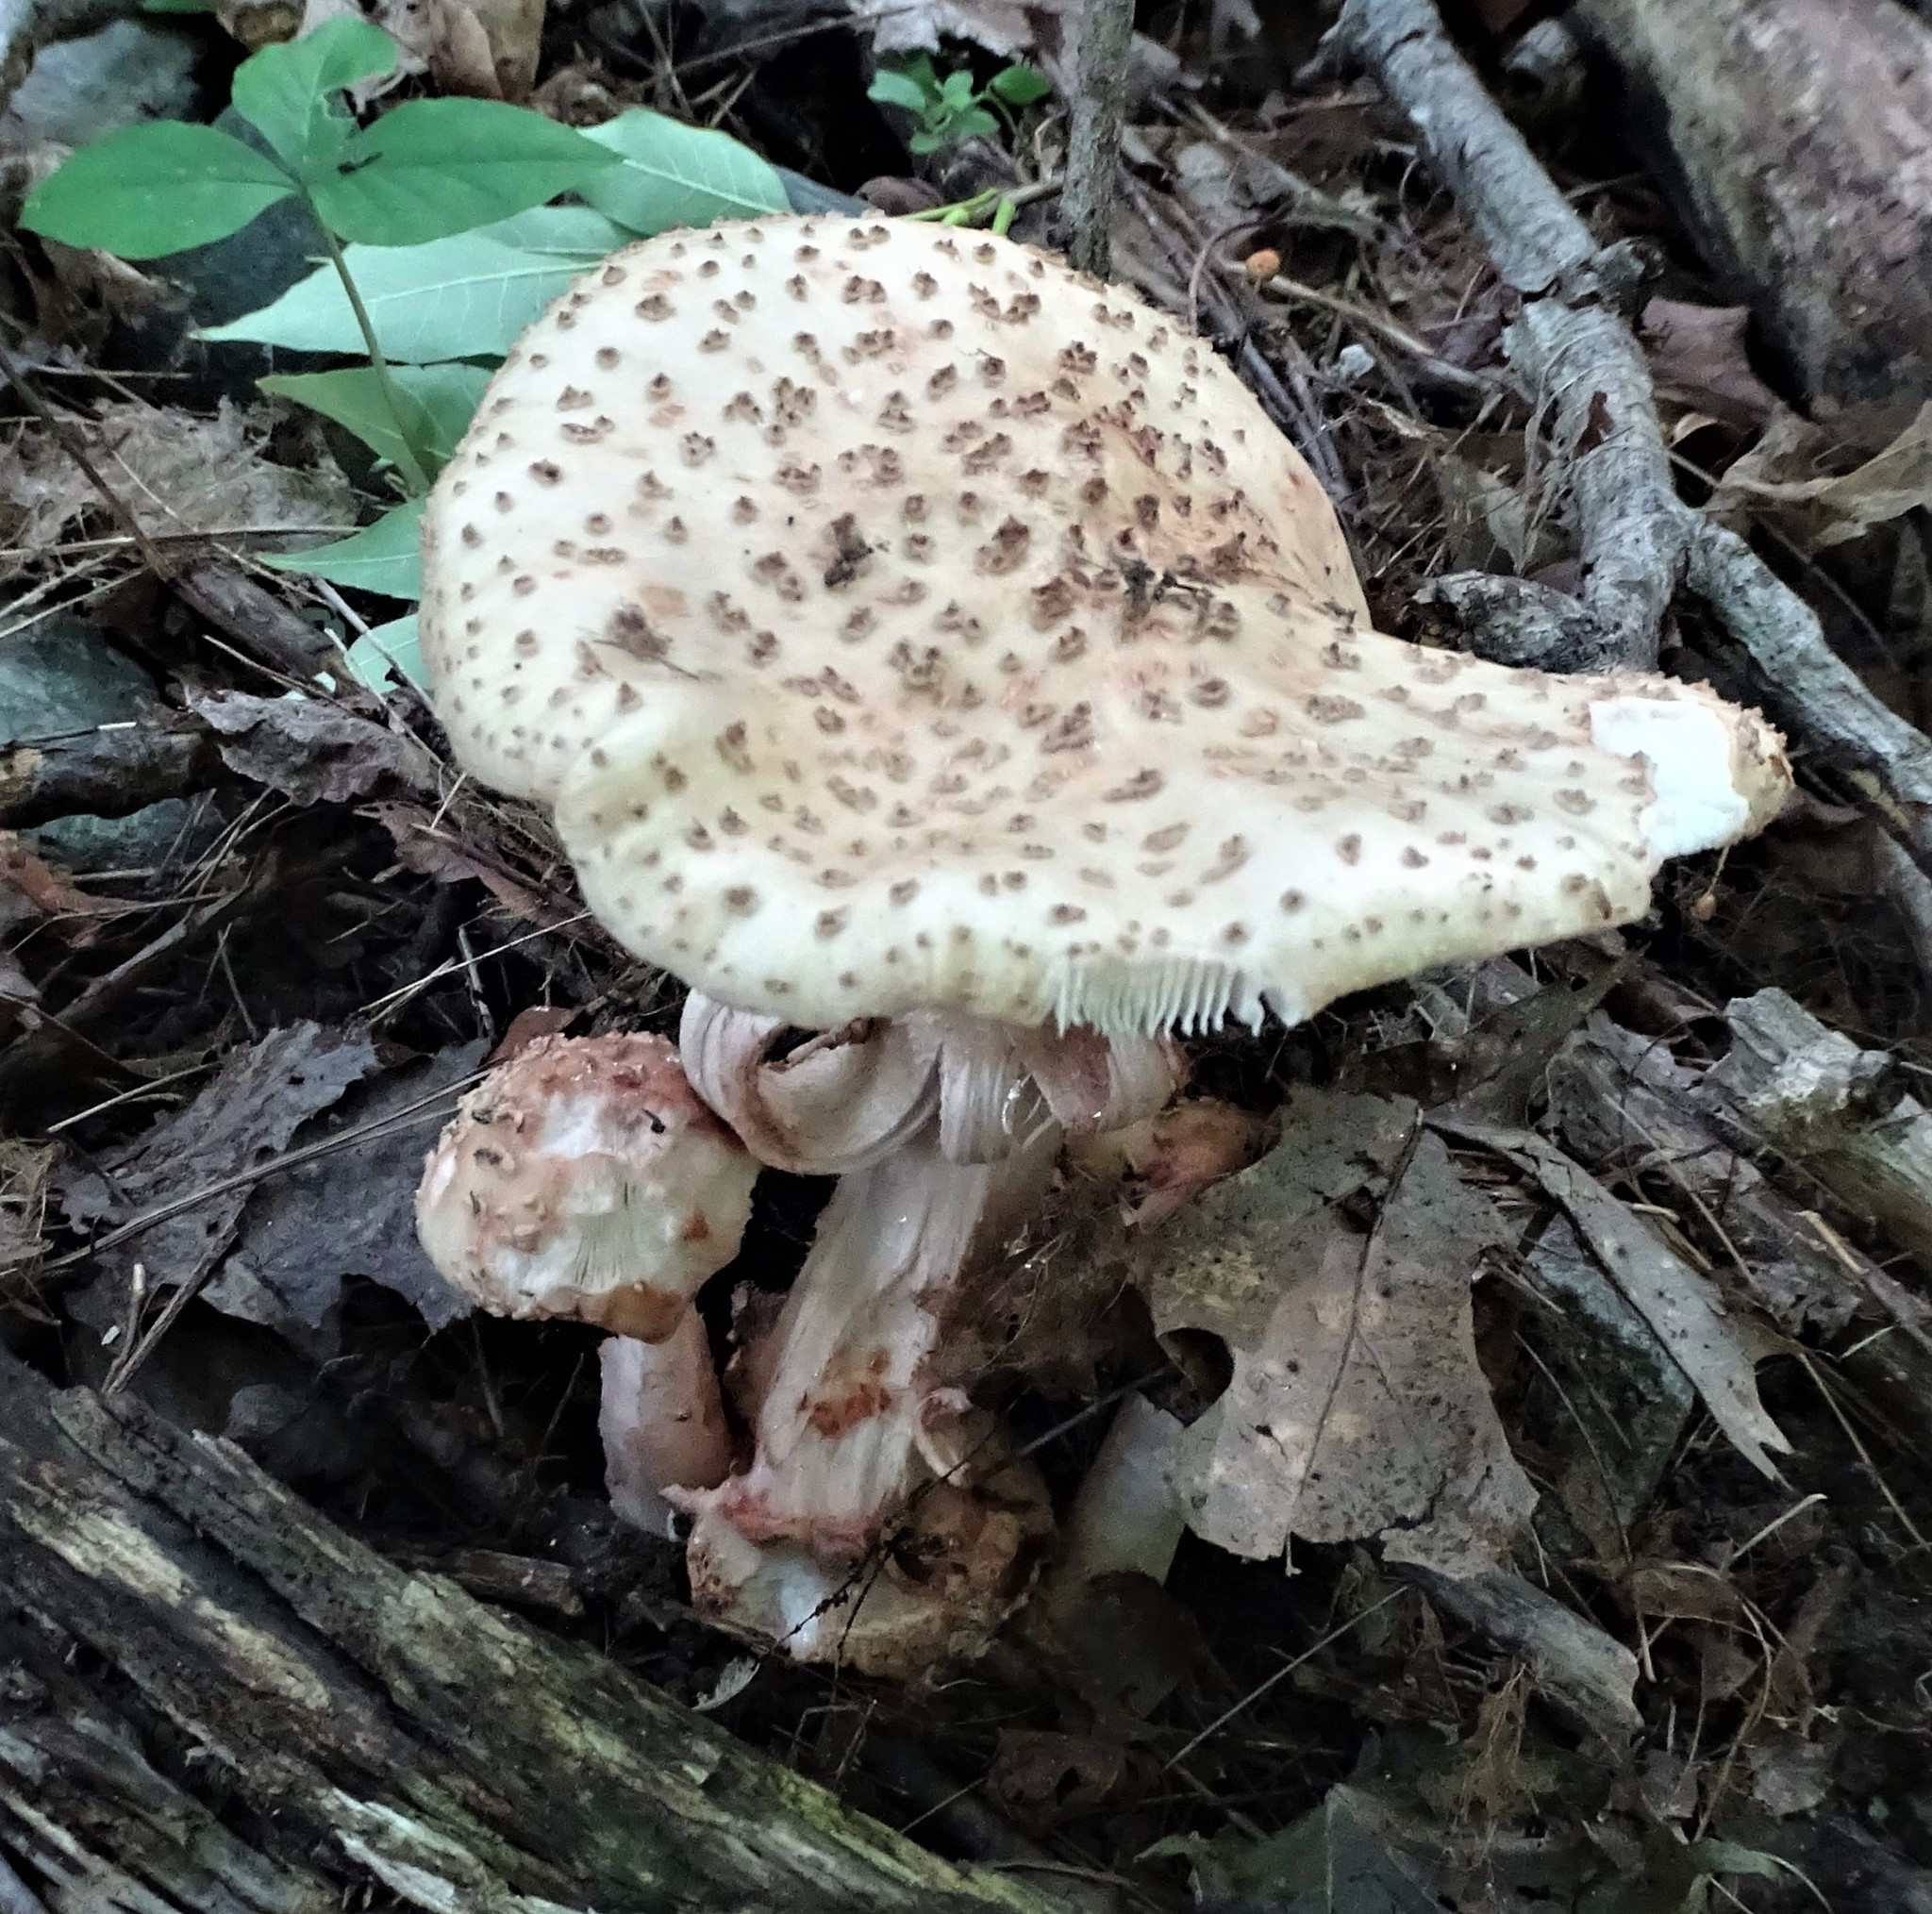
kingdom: Fungi
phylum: Basidiomycota
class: Agaricomycetes
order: Agaricales
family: Amanitaceae
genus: Amanita
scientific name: Amanita rubescens
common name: Blusher
